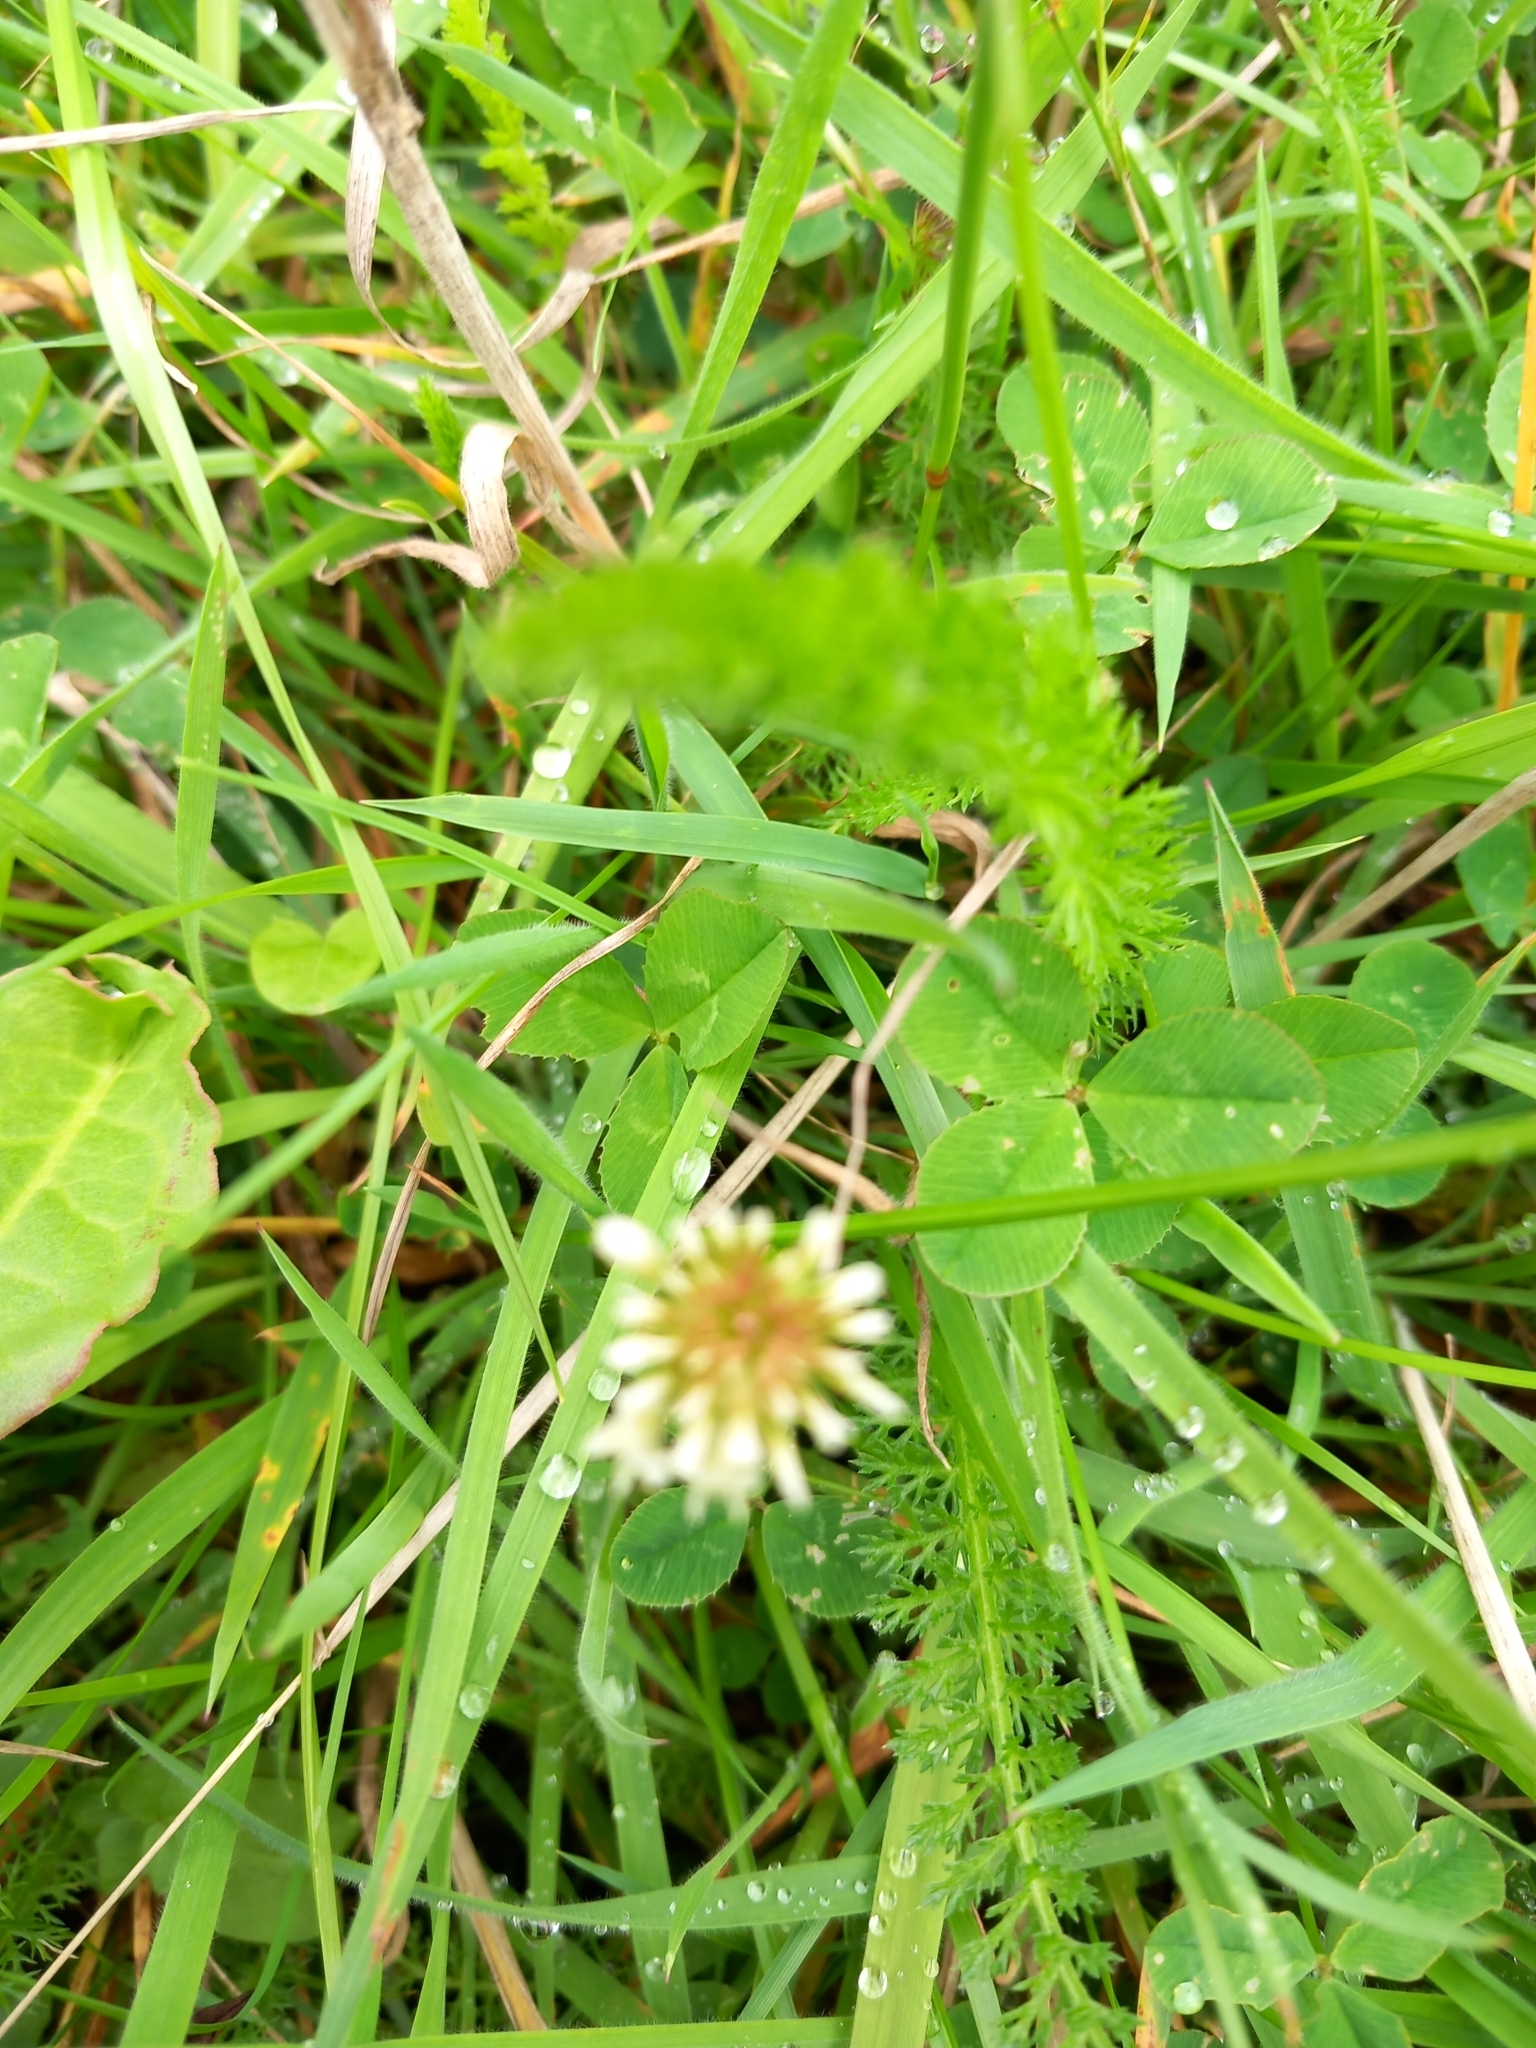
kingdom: Plantae
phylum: Tracheophyta
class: Magnoliopsida
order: Fabales
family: Fabaceae
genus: Trifolium
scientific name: Trifolium repens
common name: White clover
